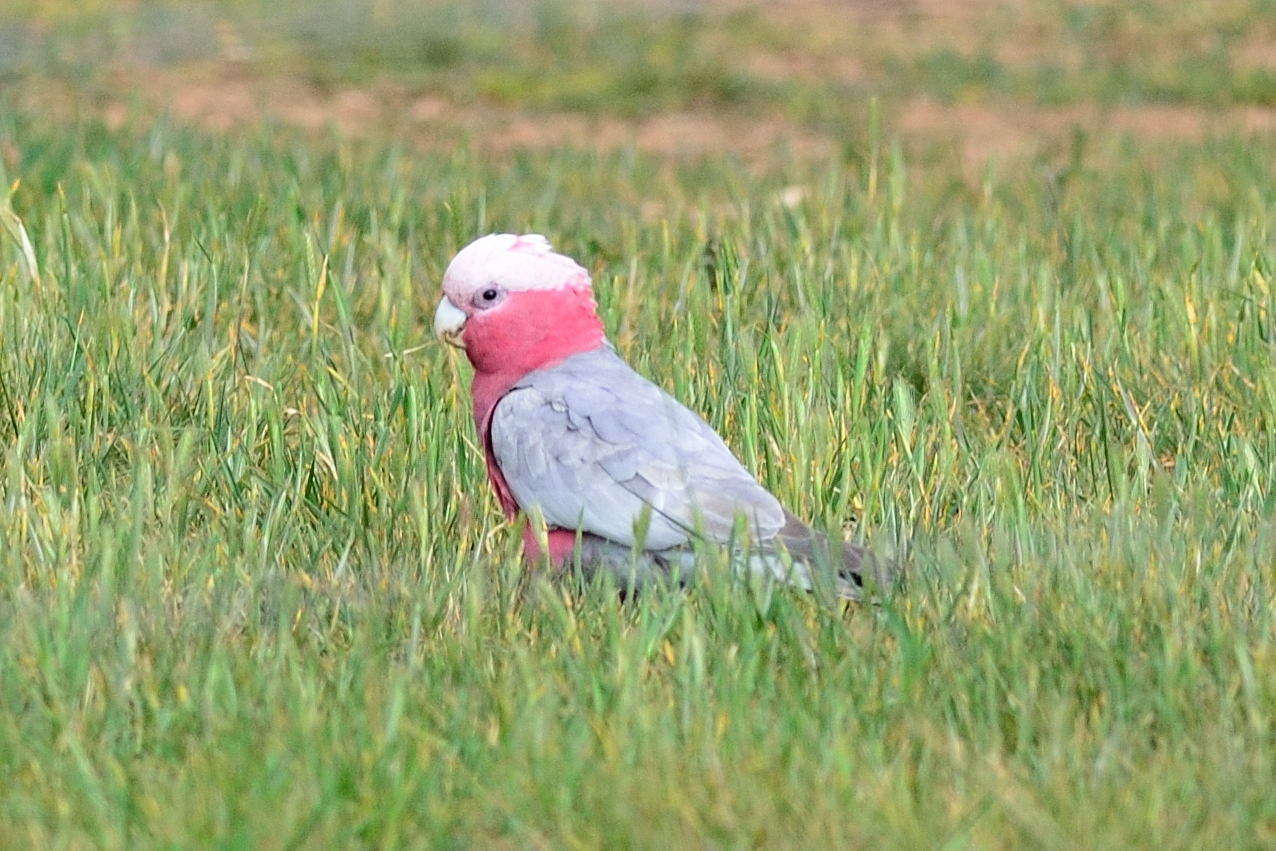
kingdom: Animalia
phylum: Chordata
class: Aves
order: Psittaciformes
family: Psittacidae
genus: Eolophus
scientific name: Eolophus roseicapilla
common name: Galah
